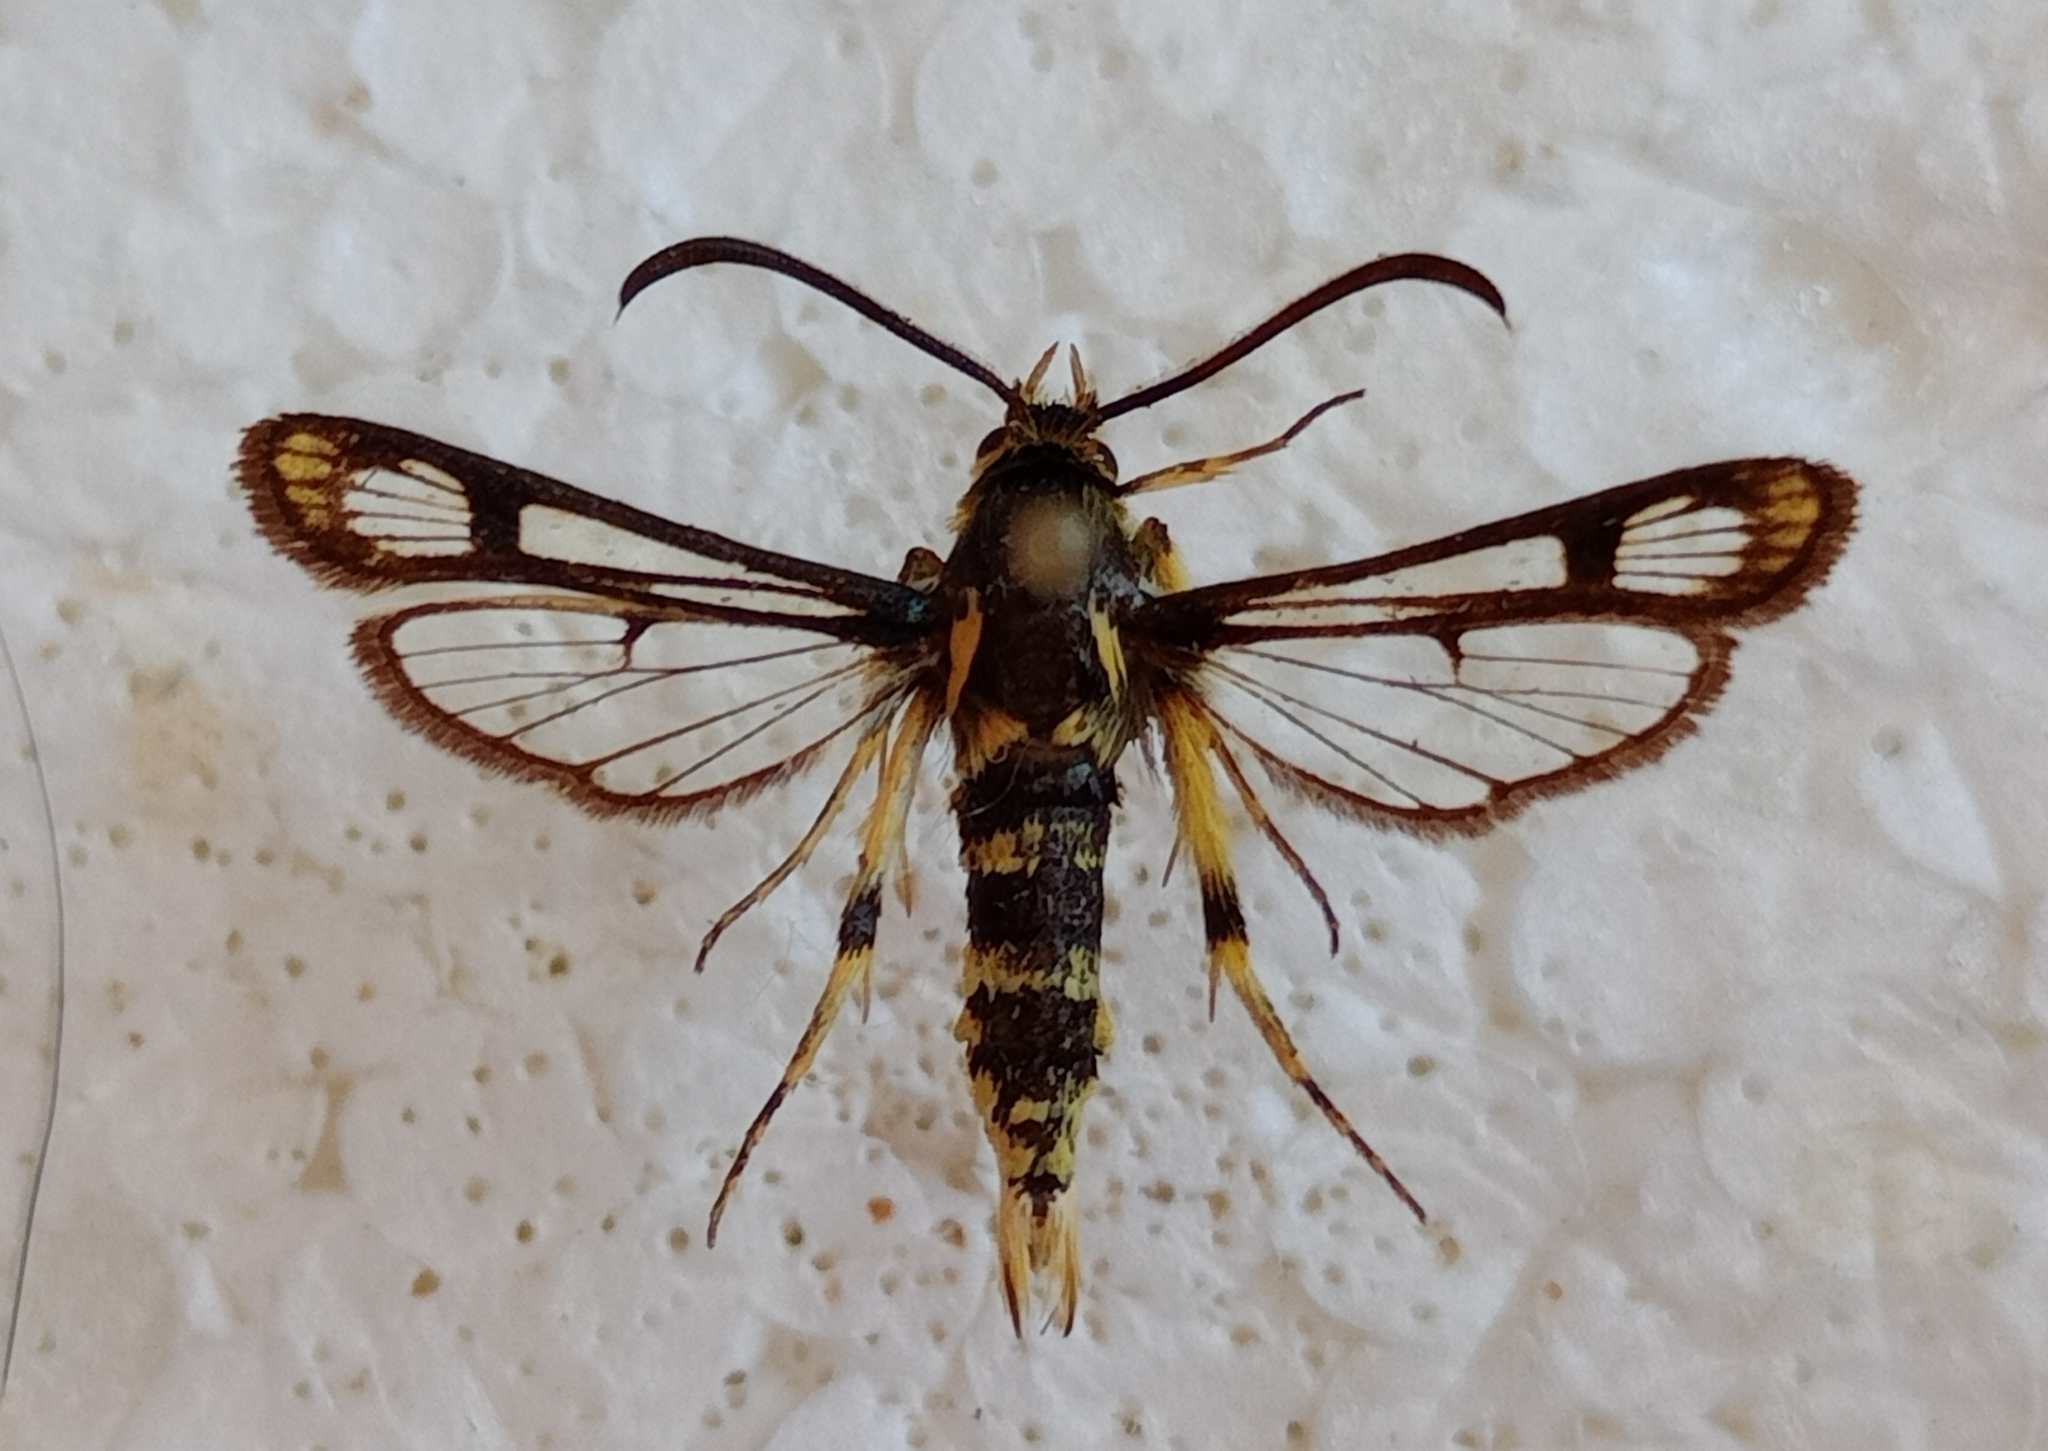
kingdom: Animalia
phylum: Arthropoda
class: Insecta
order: Lepidoptera
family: Sesiidae
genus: Chamaesphecia
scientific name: Chamaesphecia masariformis
